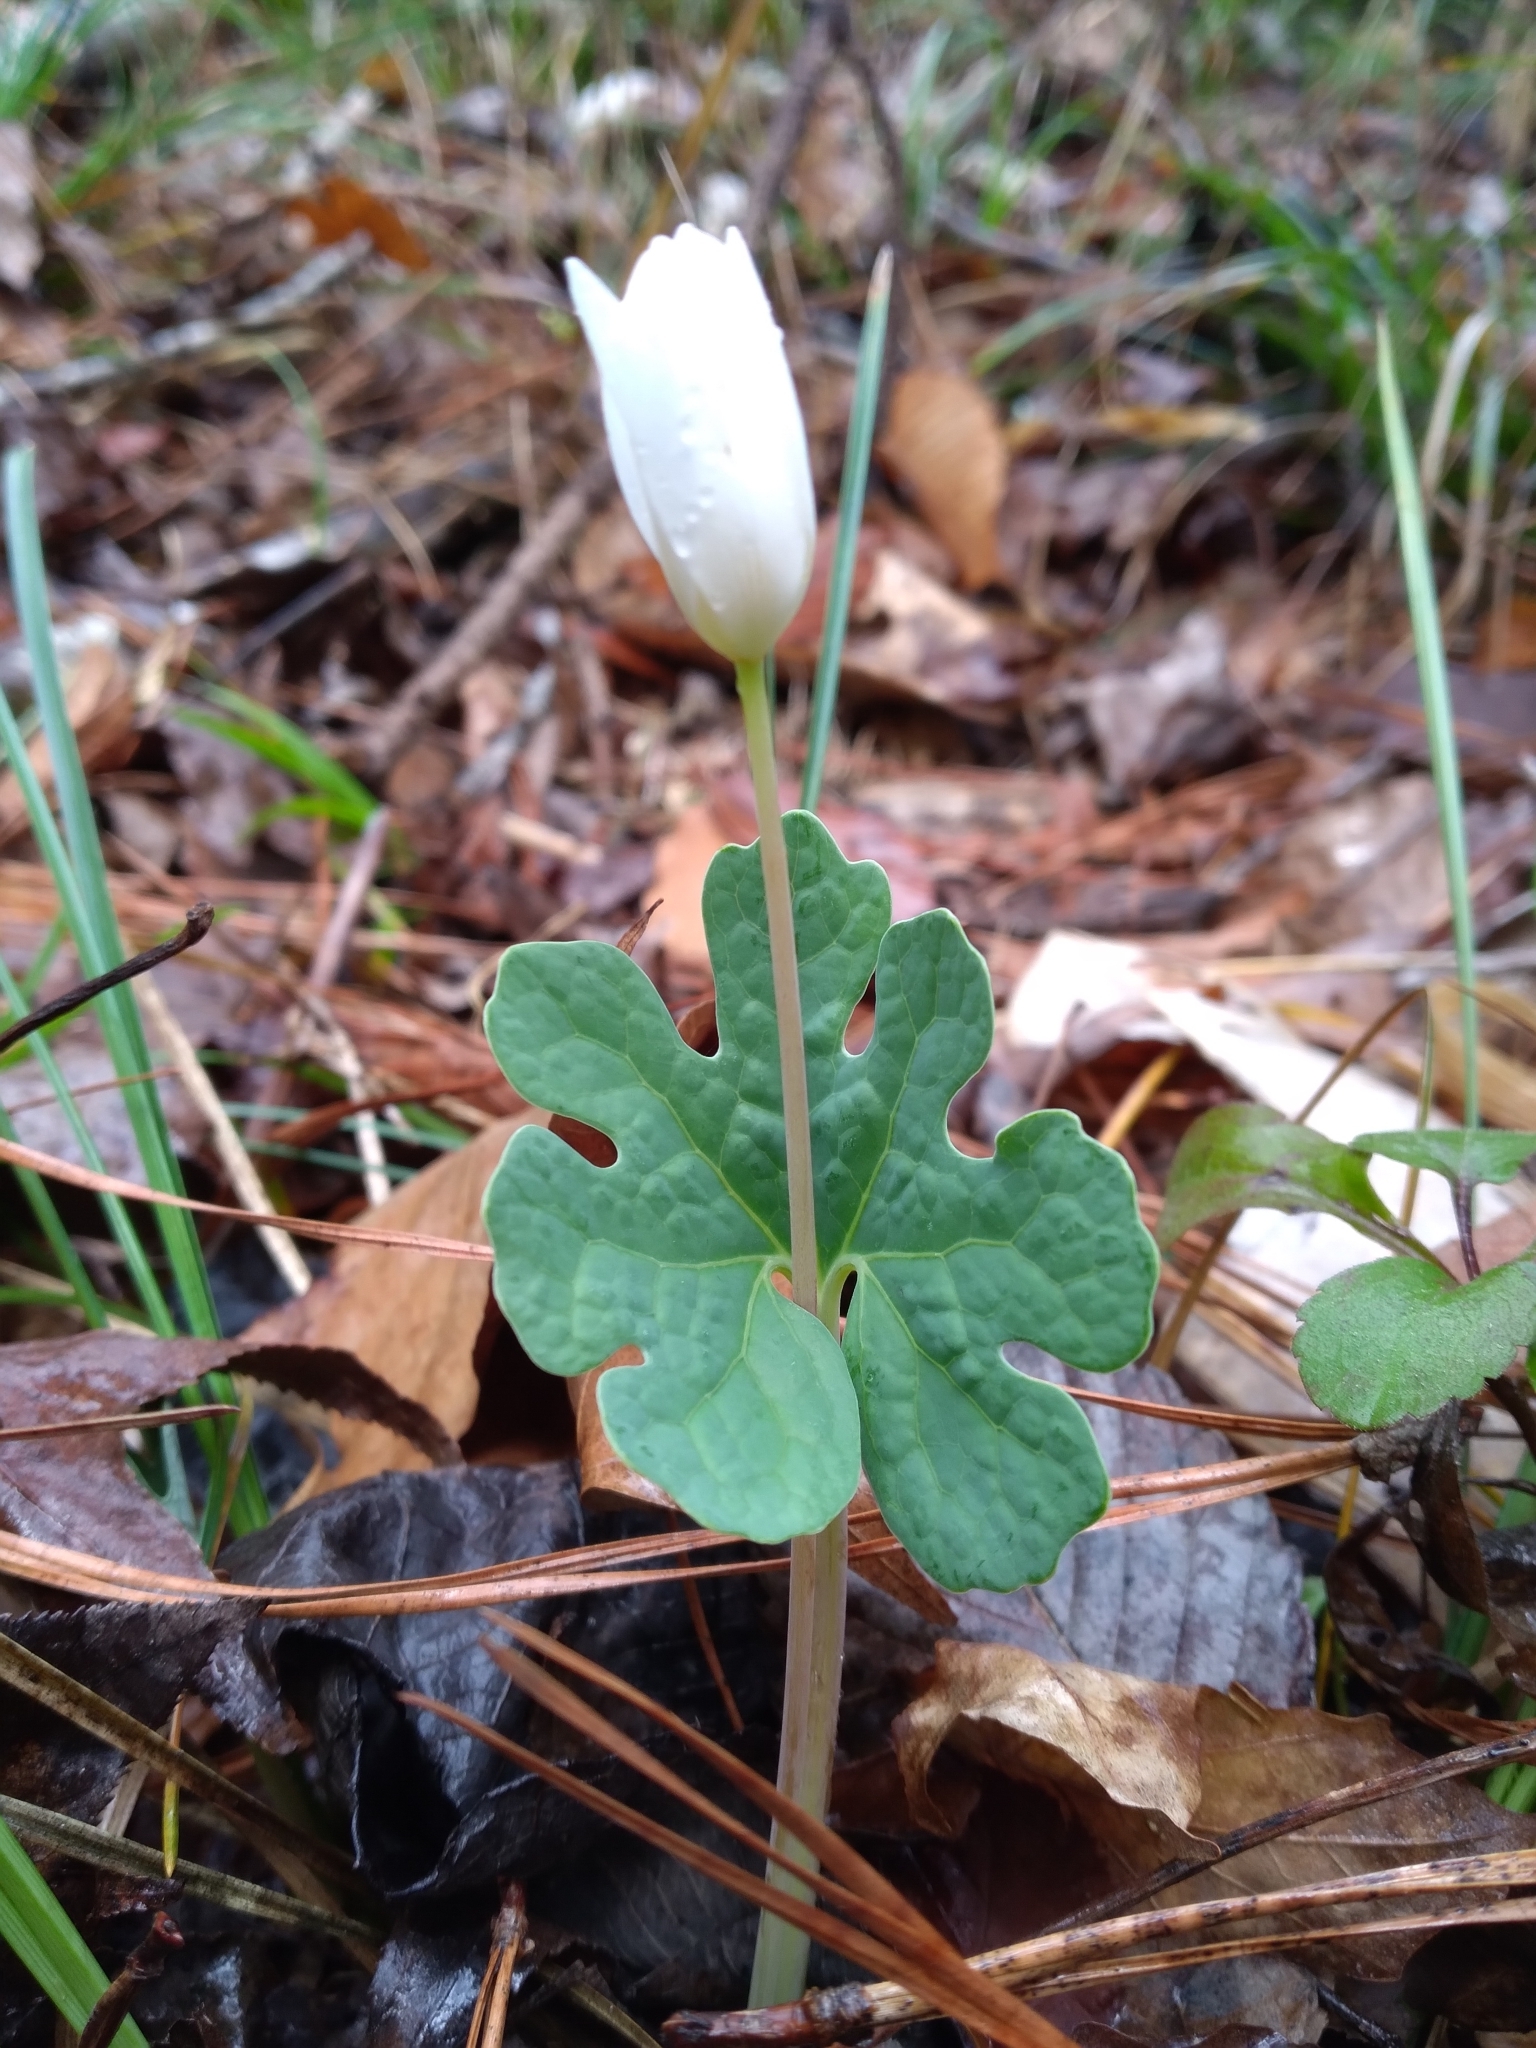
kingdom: Plantae
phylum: Tracheophyta
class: Magnoliopsida
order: Ranunculales
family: Papaveraceae
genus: Sanguinaria
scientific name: Sanguinaria canadensis
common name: Bloodroot
